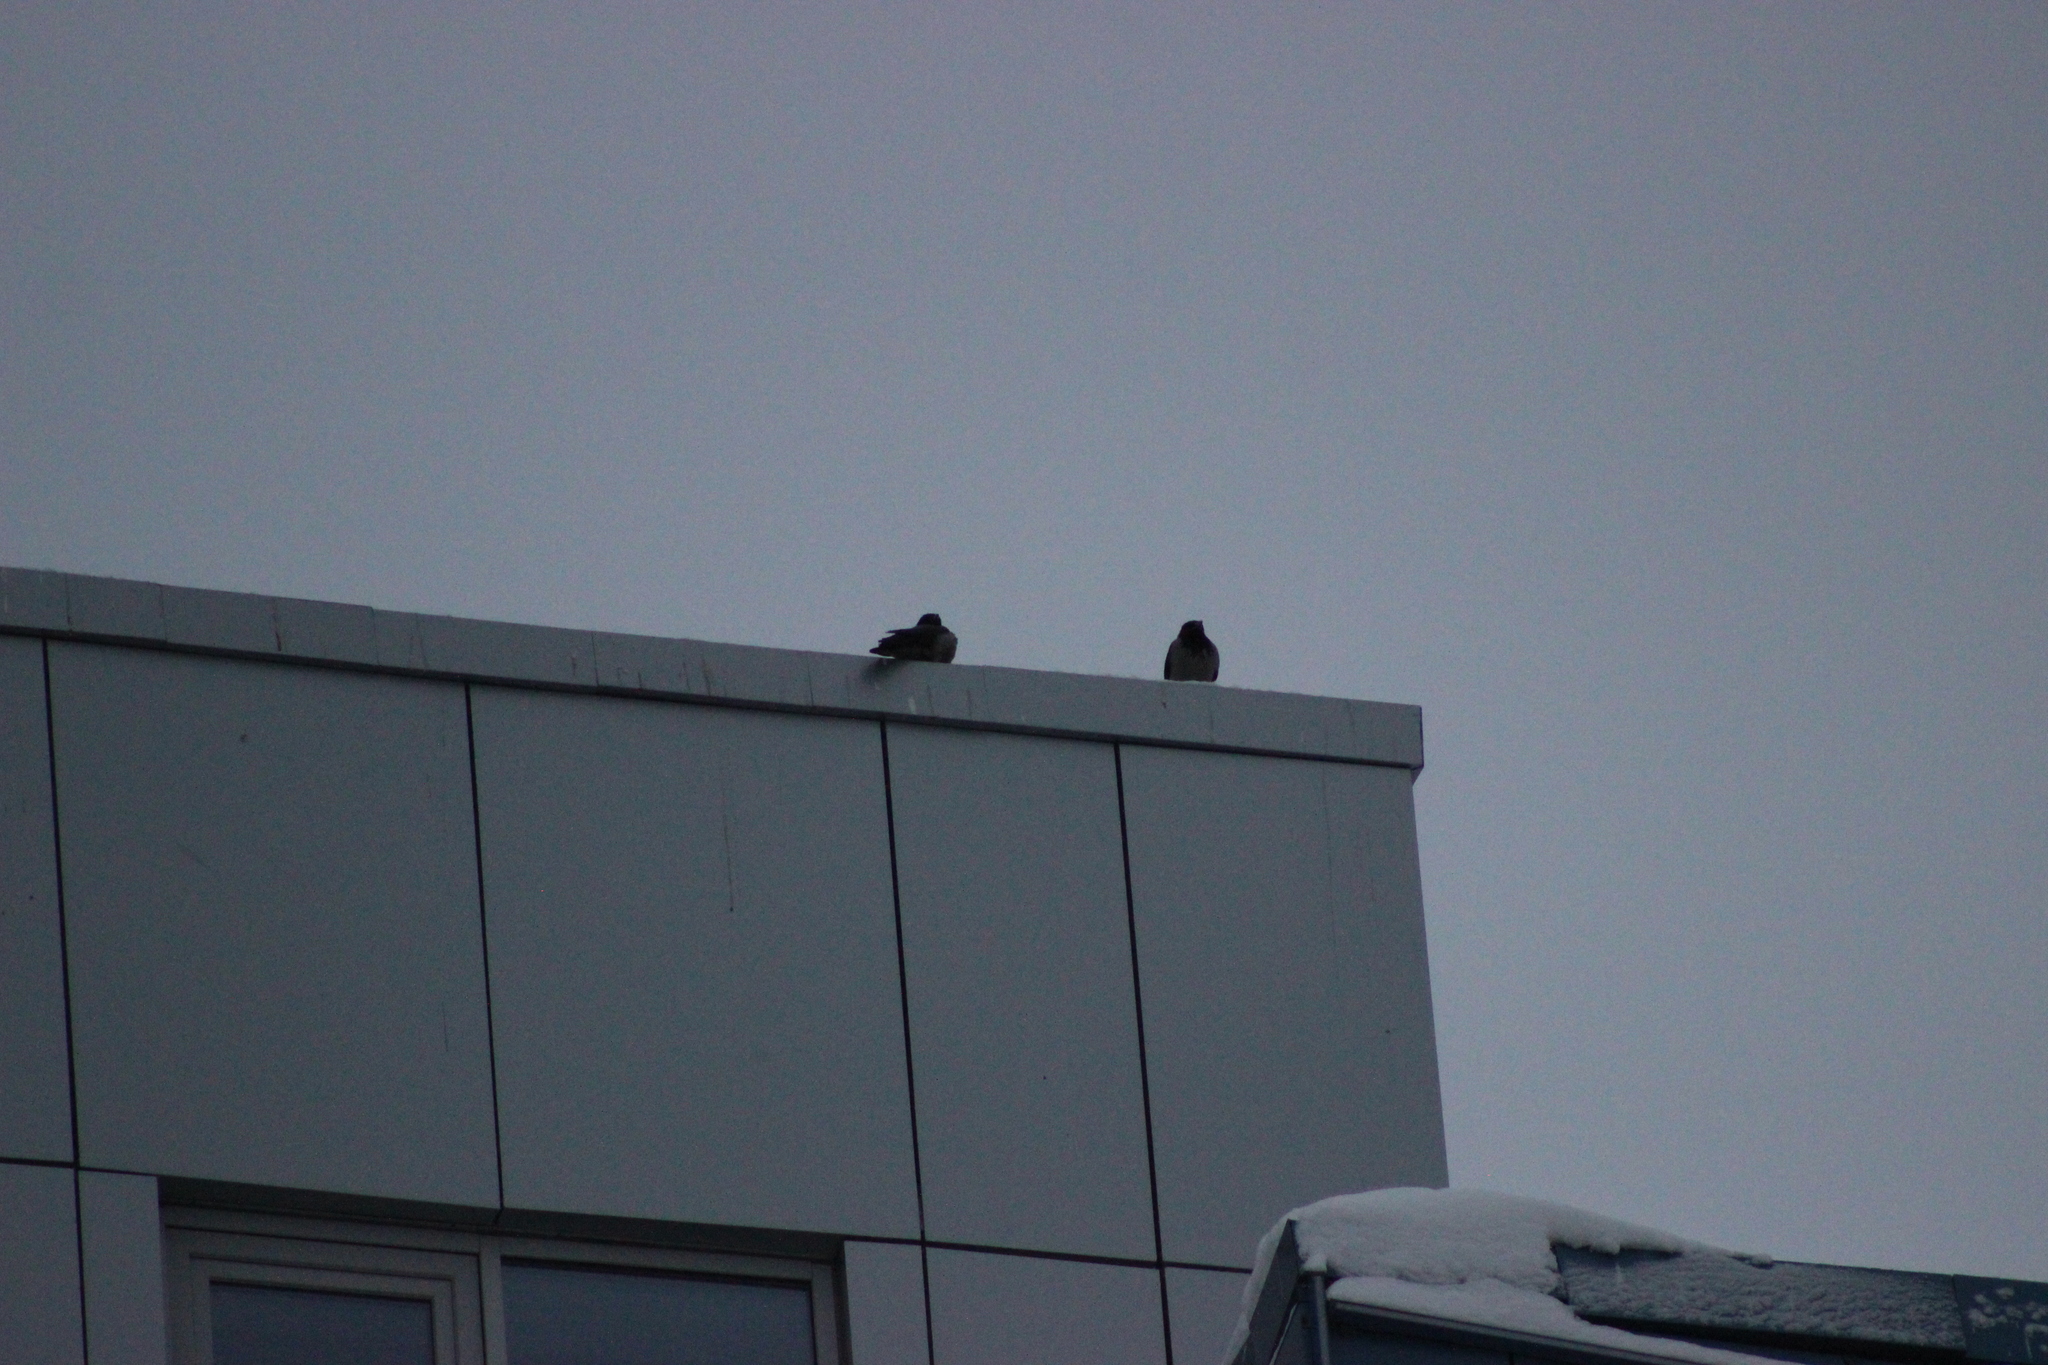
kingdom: Animalia
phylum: Chordata
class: Aves
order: Passeriformes
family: Corvidae
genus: Corvus
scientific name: Corvus cornix
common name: Hooded crow
